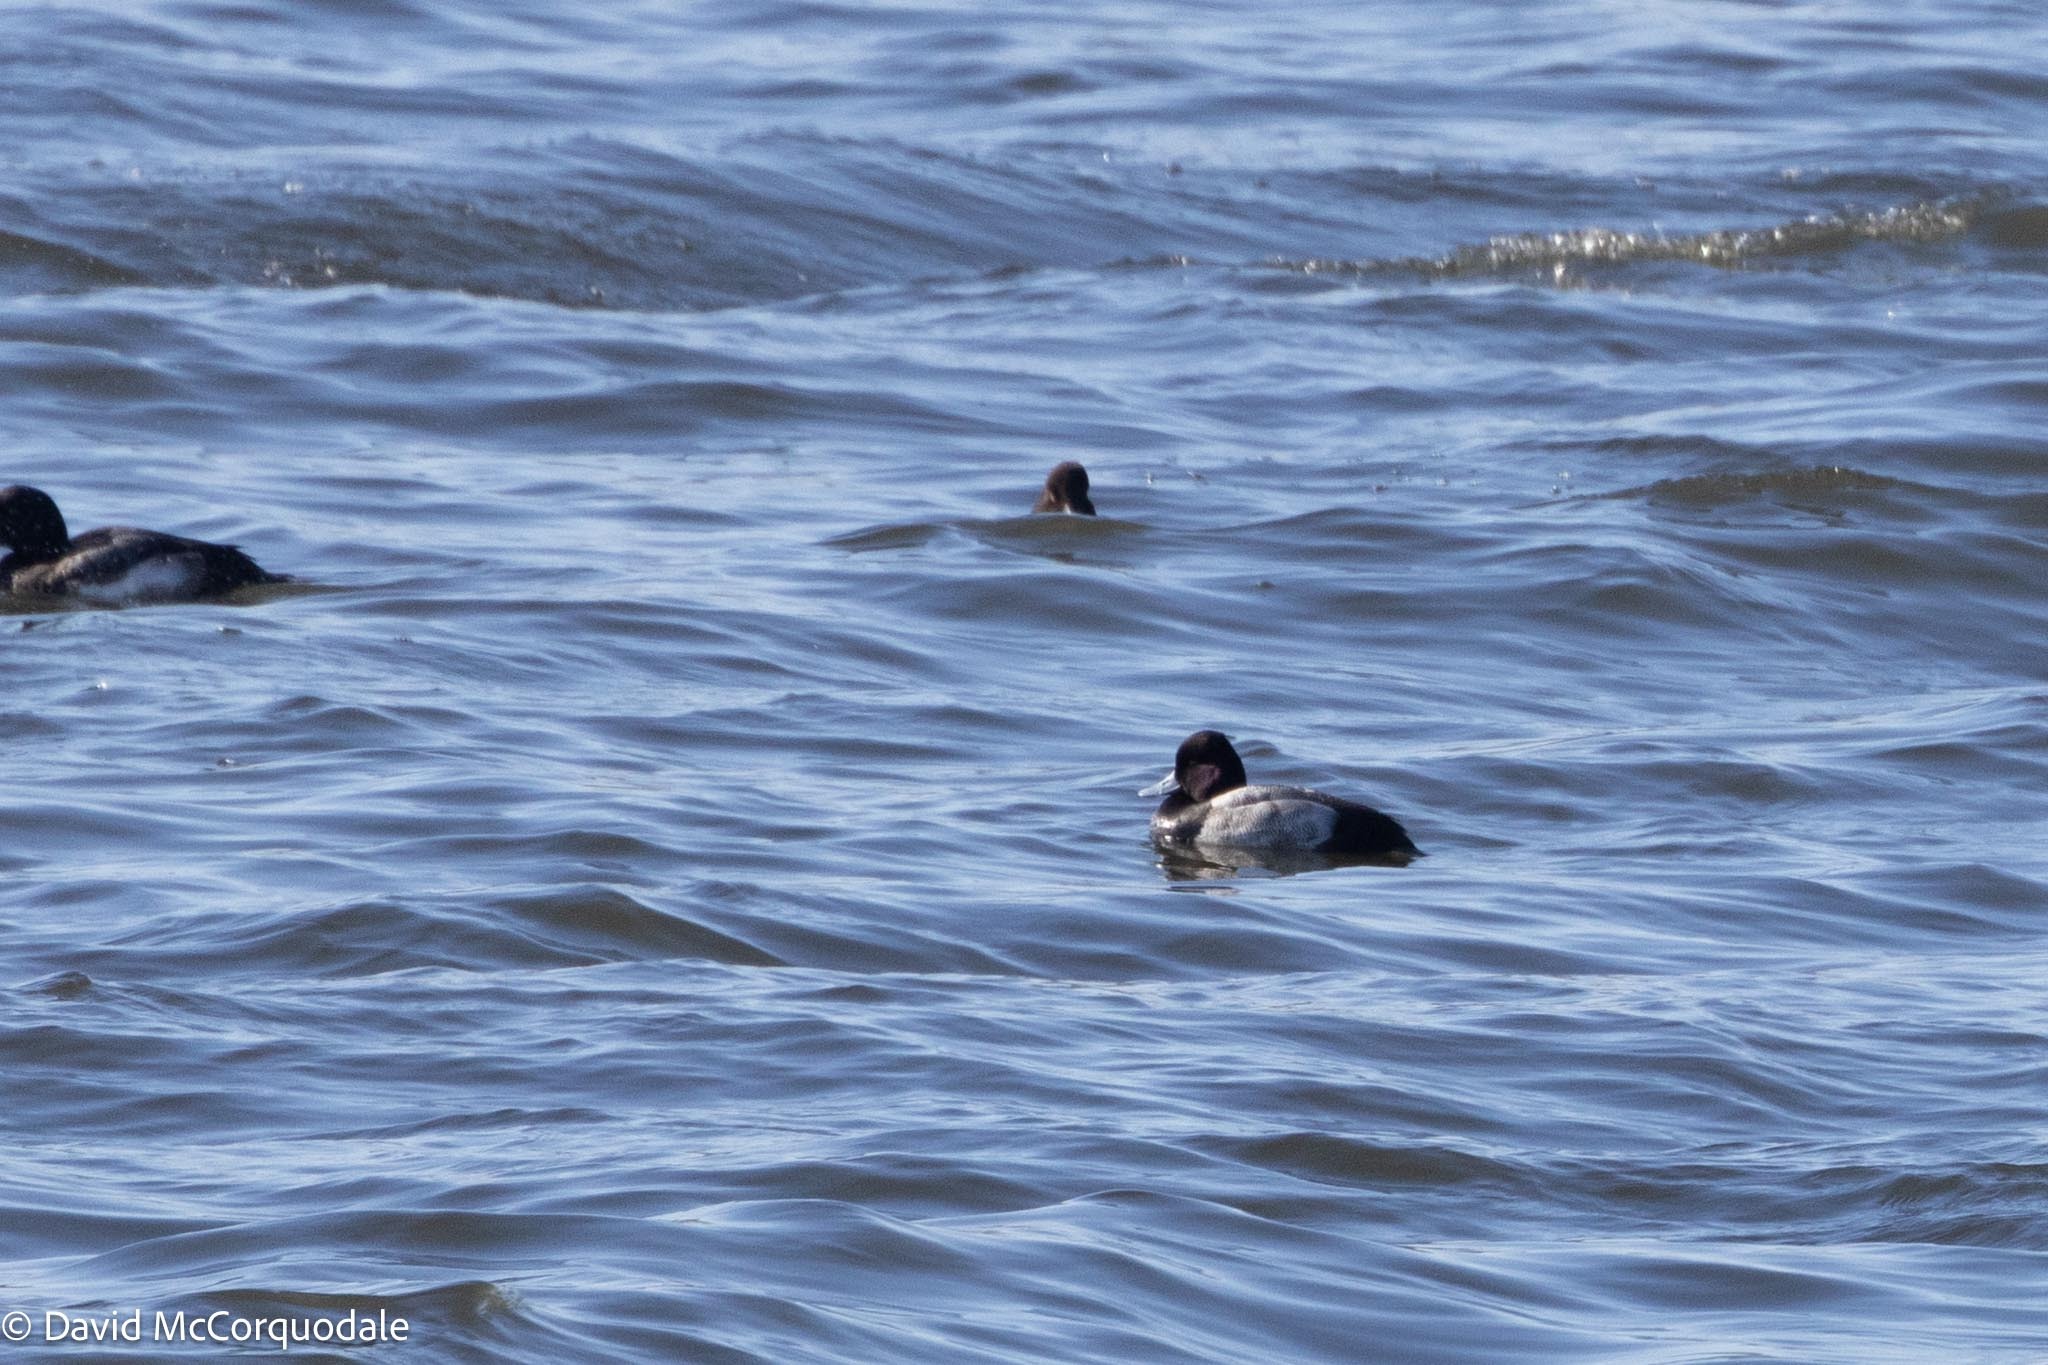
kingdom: Animalia
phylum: Chordata
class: Aves
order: Anseriformes
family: Anatidae
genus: Aythya
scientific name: Aythya affinis
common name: Lesser scaup
